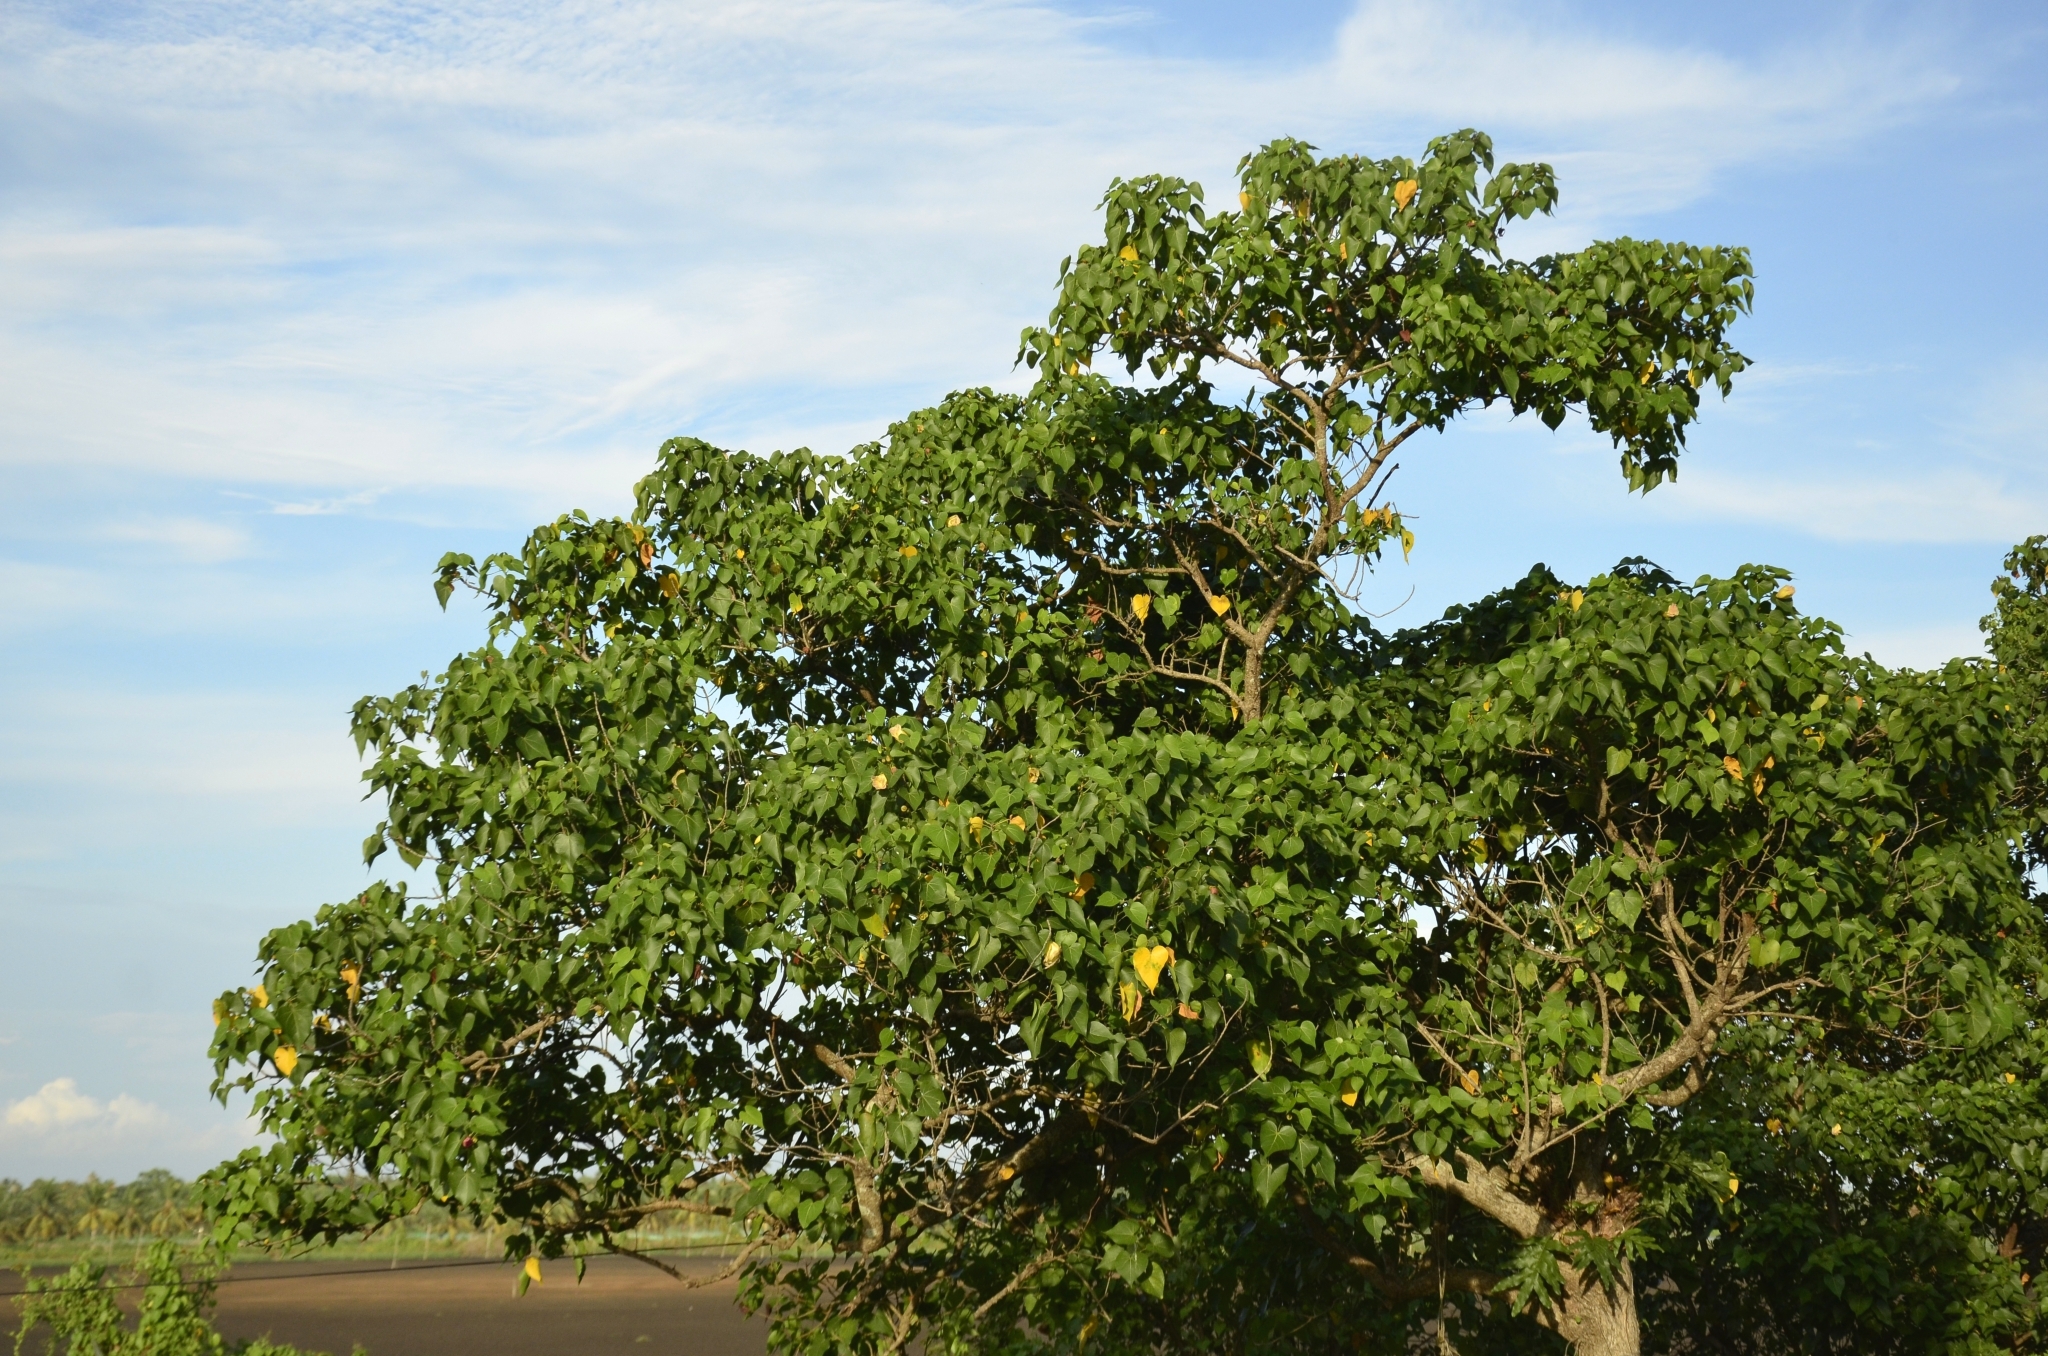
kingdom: Plantae
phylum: Tracheophyta
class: Magnoliopsida
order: Malvales
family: Malvaceae
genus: Thespesia
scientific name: Thespesia populnea
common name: Seaside mahoe
